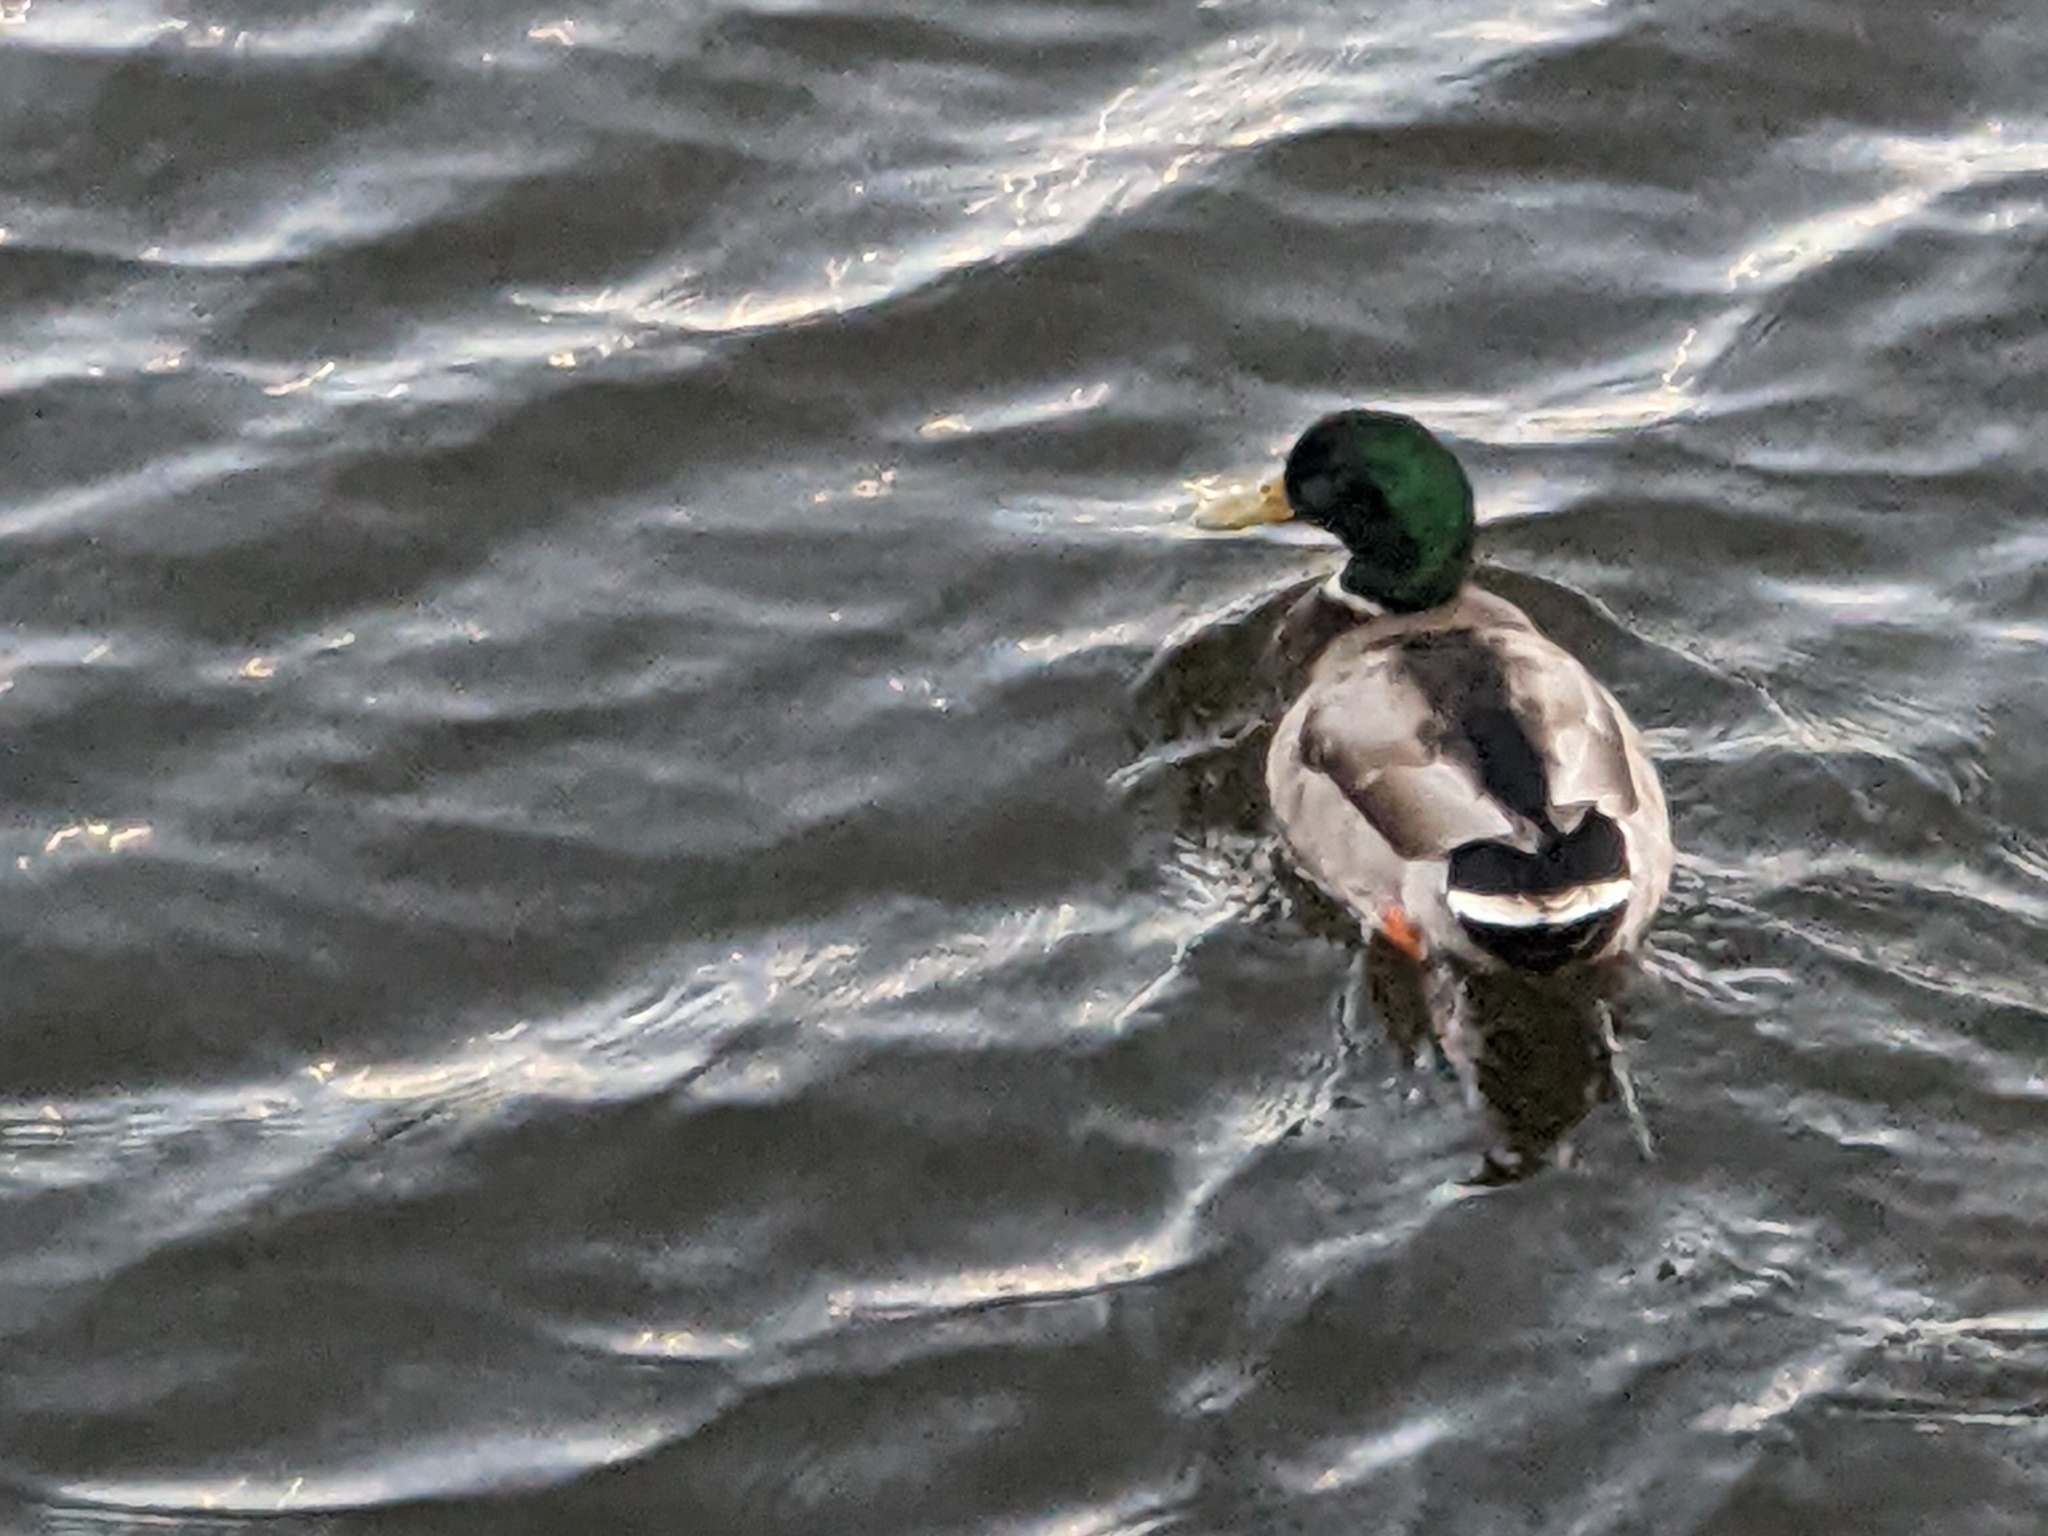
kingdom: Animalia
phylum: Chordata
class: Aves
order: Anseriformes
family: Anatidae
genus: Anas
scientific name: Anas platyrhynchos
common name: Mallard
